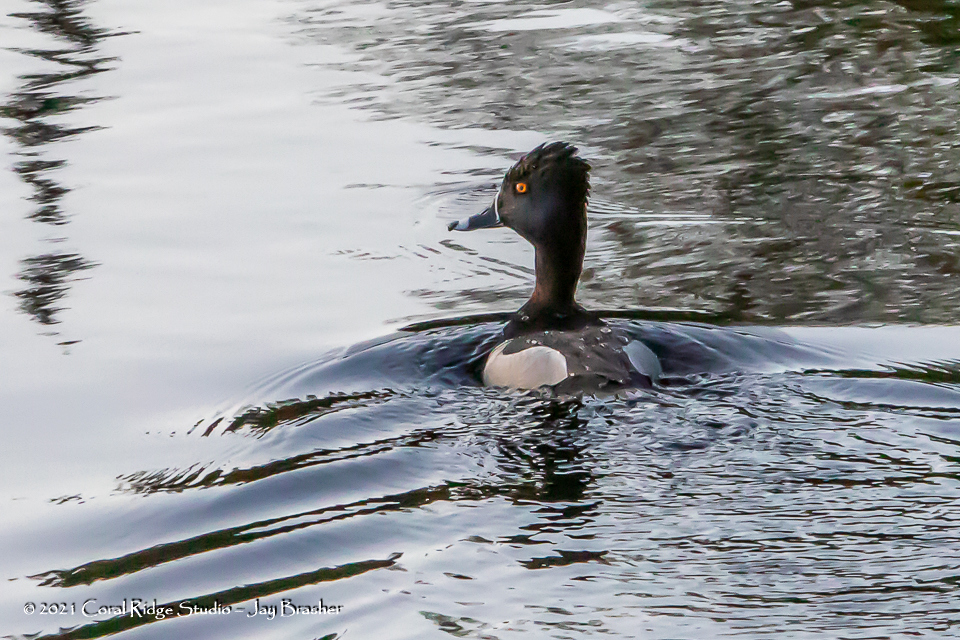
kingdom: Animalia
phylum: Chordata
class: Aves
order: Anseriformes
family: Anatidae
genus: Aythya
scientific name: Aythya collaris
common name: Ring-necked duck
